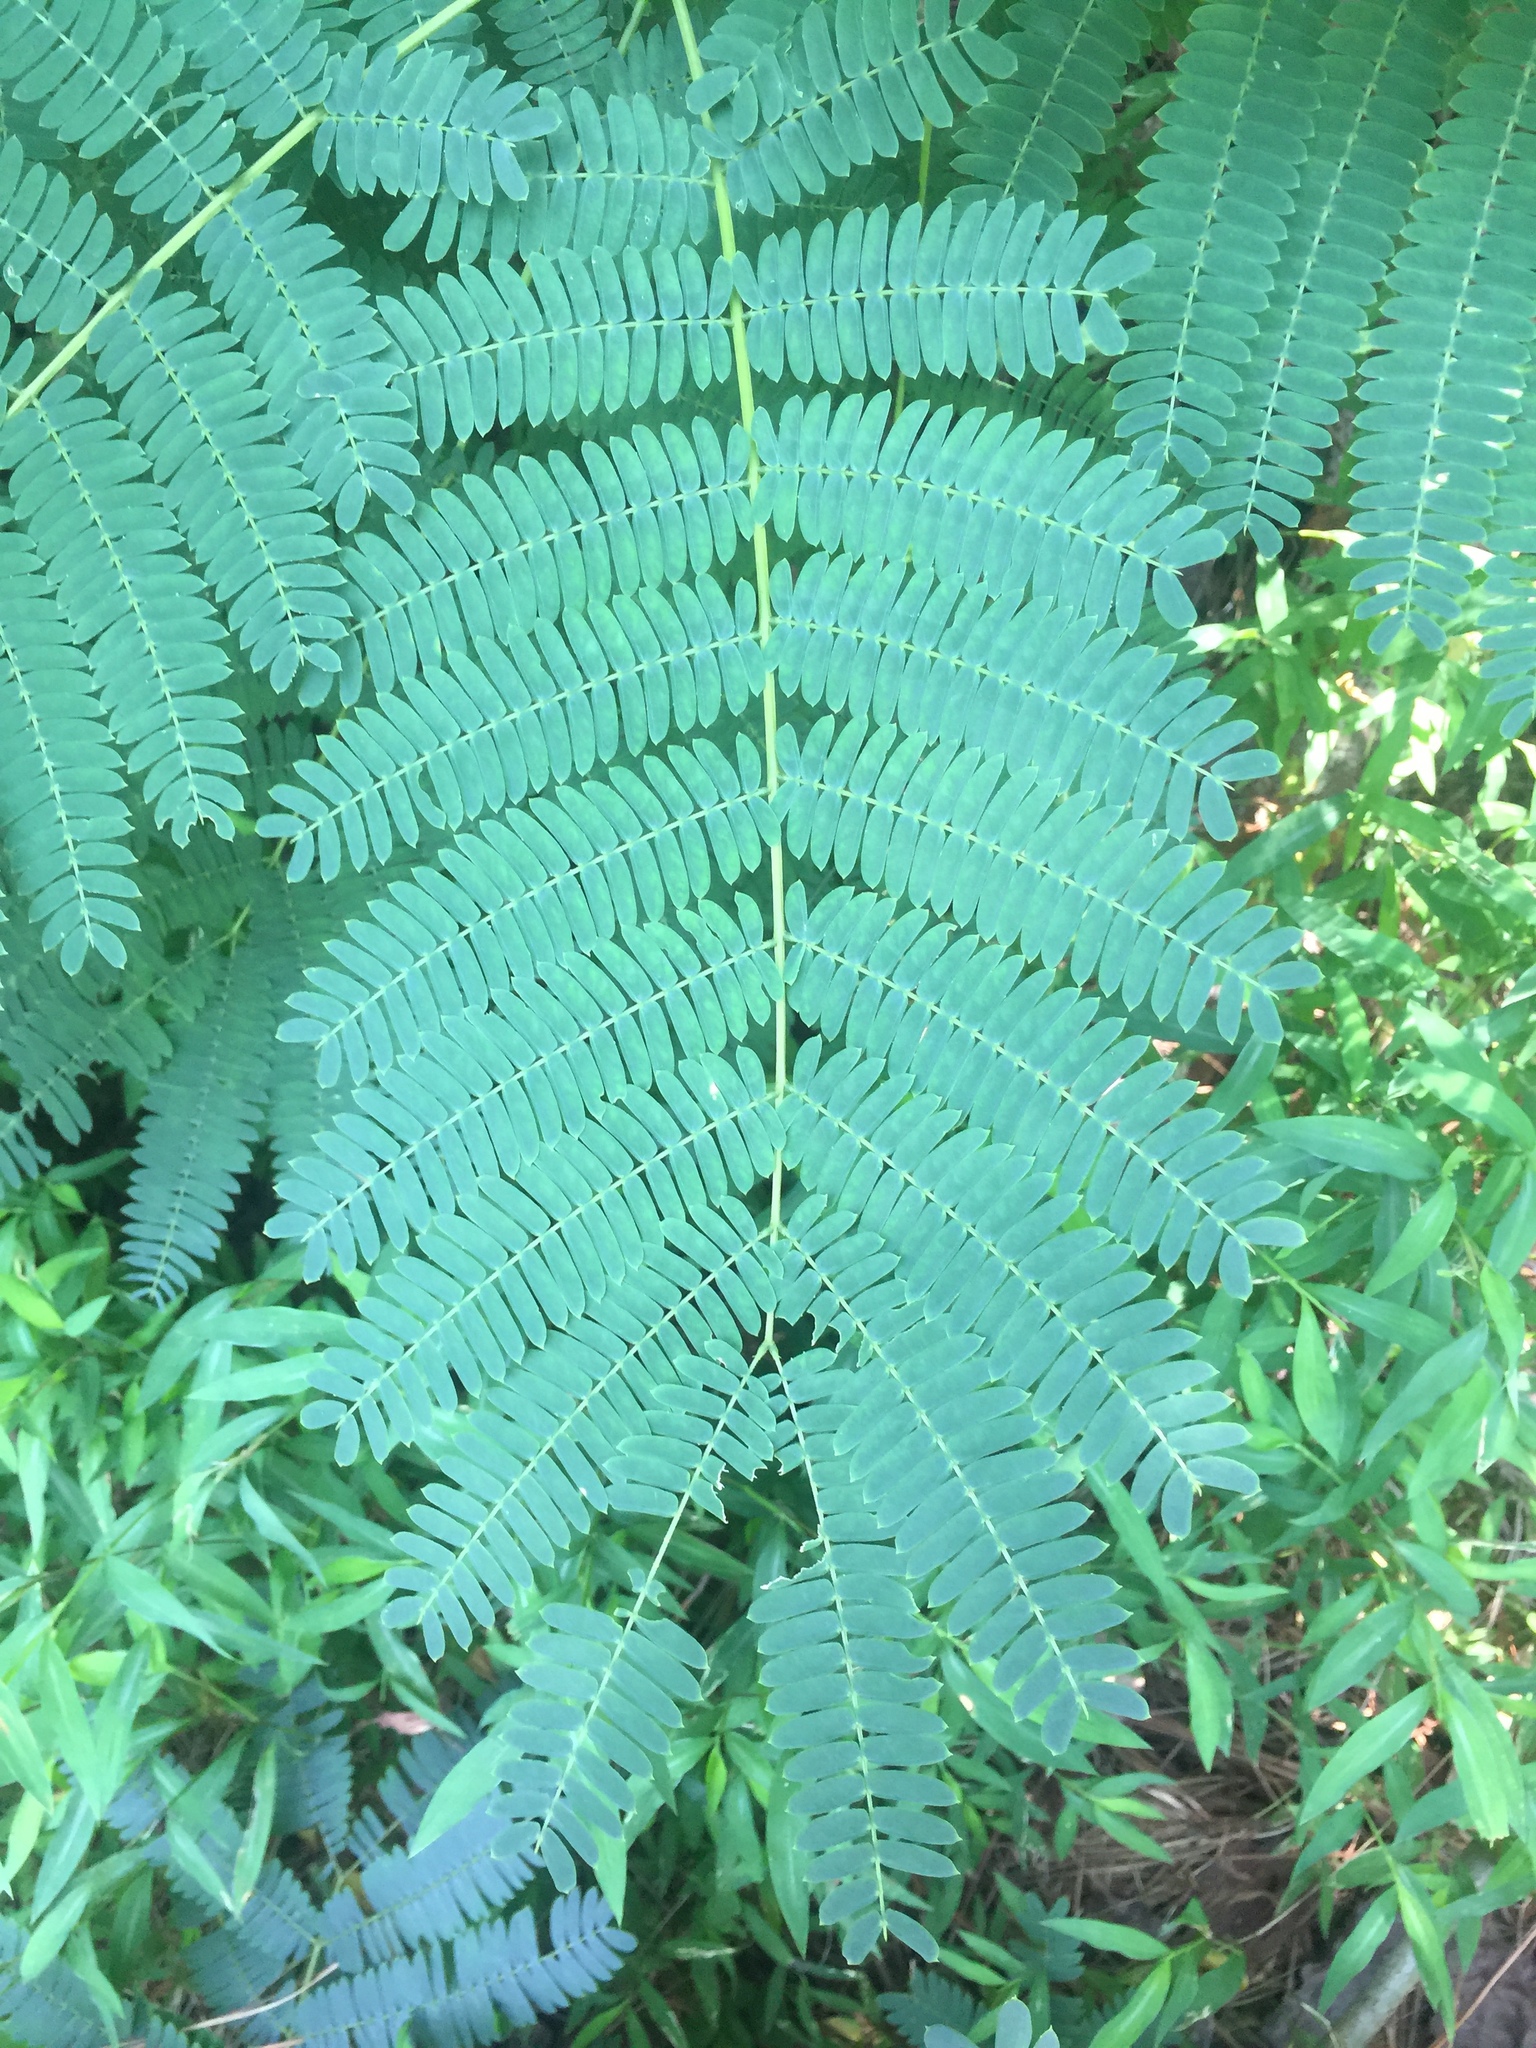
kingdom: Plantae
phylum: Tracheophyta
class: Magnoliopsida
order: Fabales
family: Fabaceae
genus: Albizia
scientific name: Albizia julibrissin
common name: Silktree
